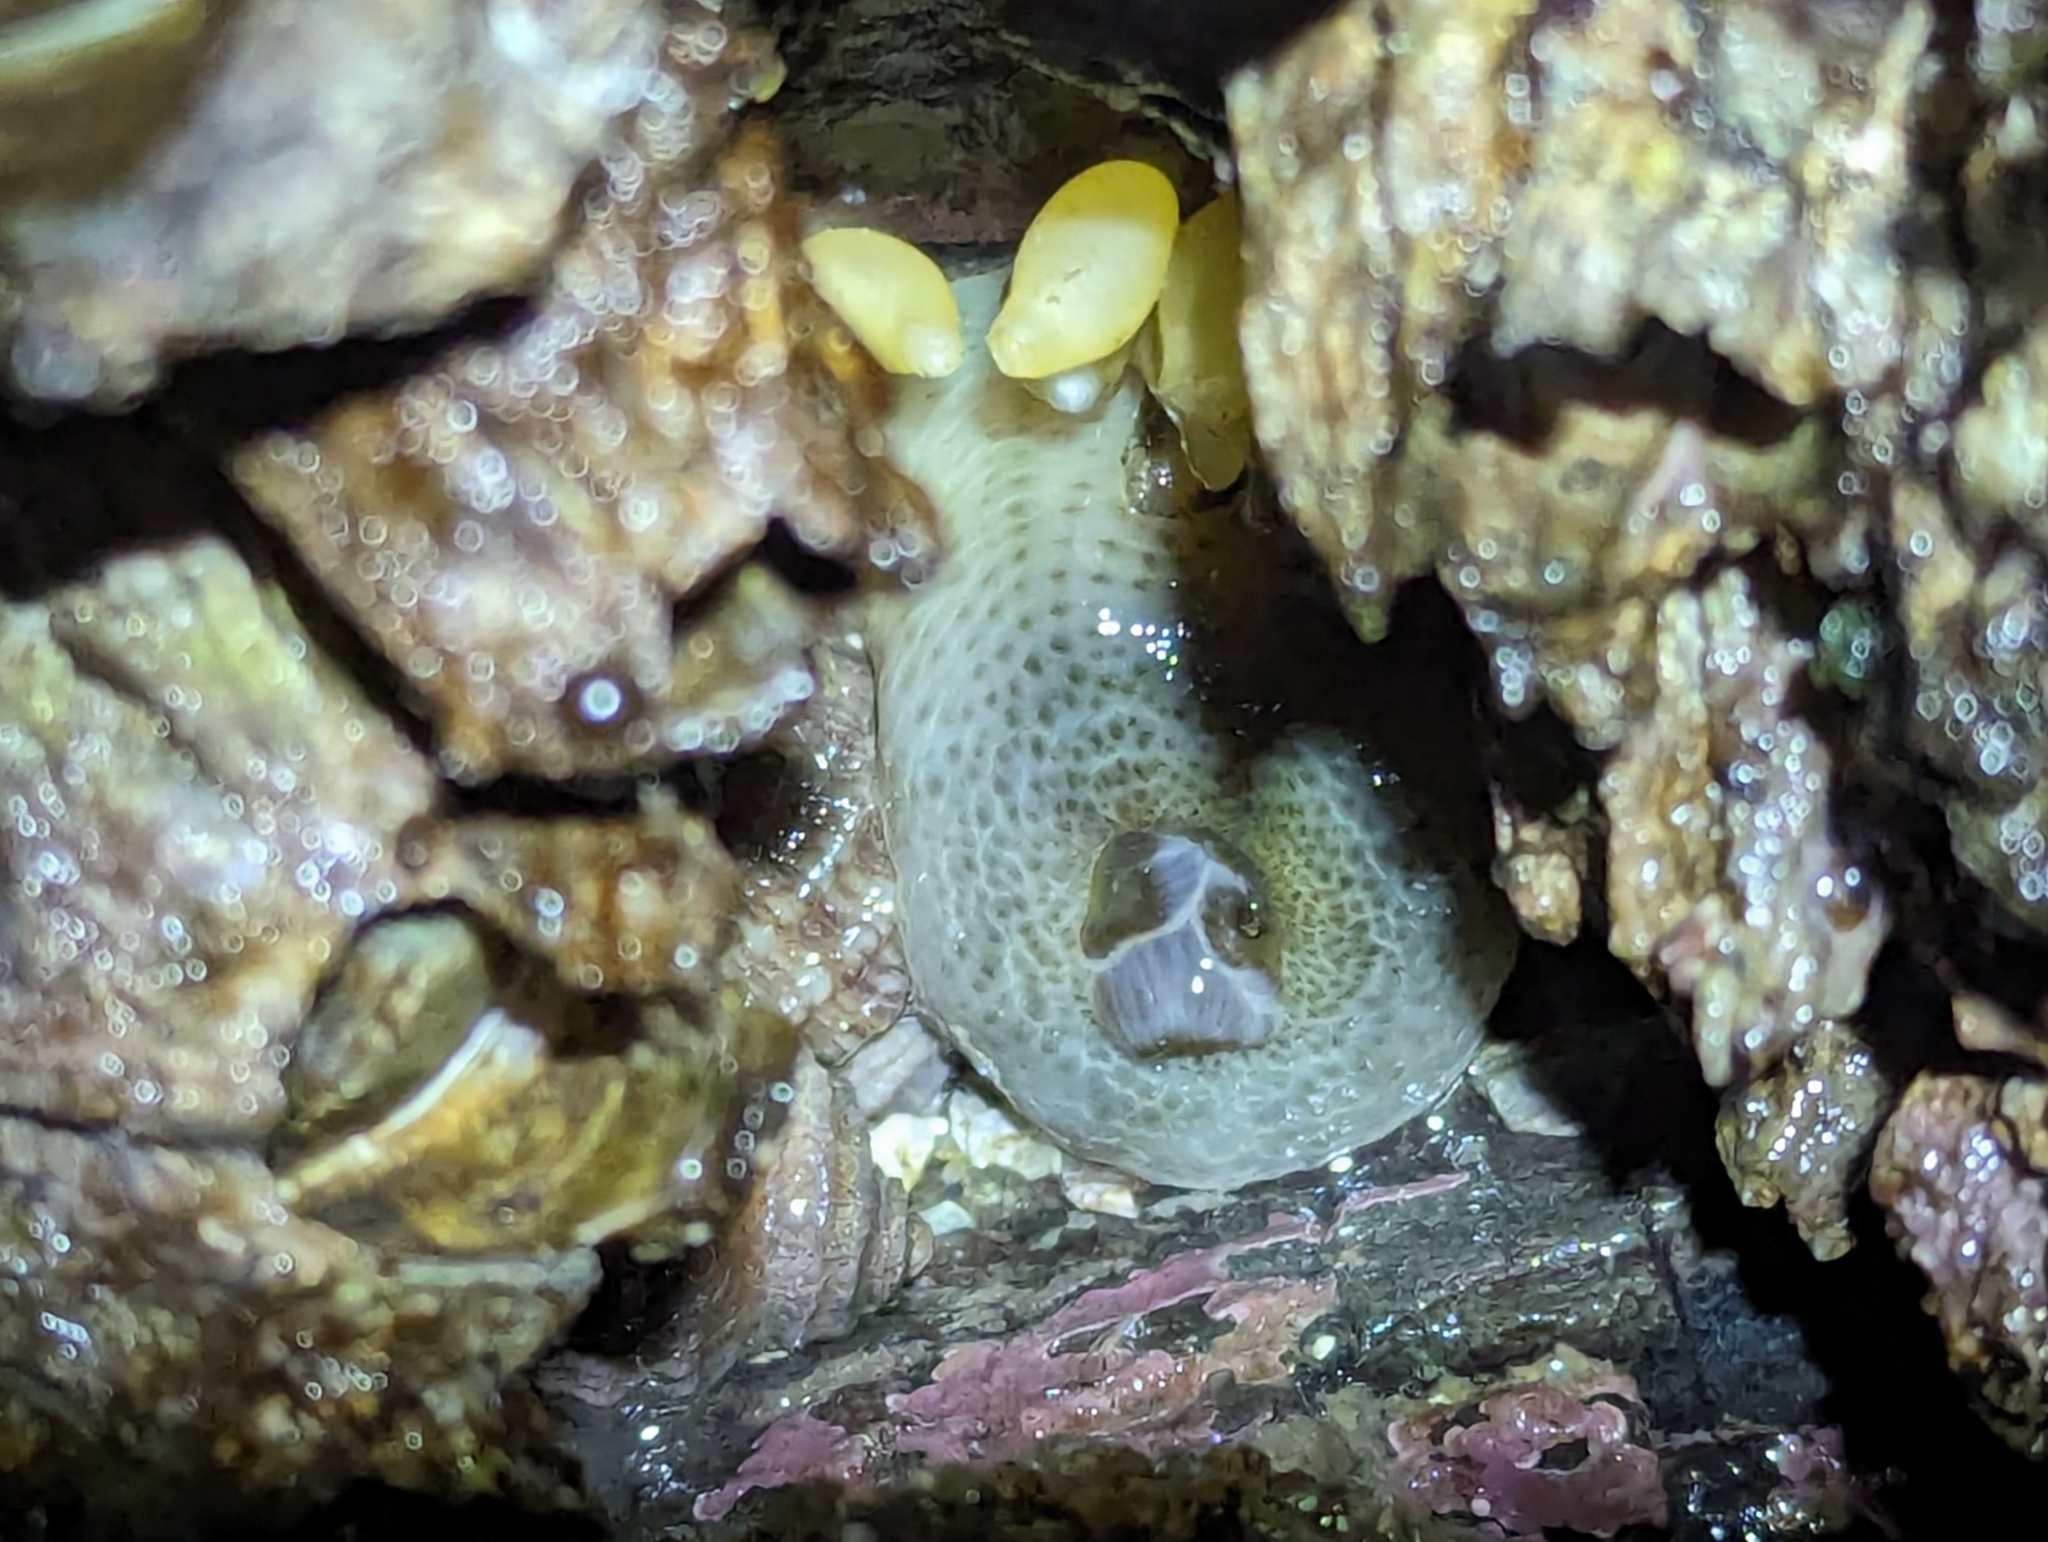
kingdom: Animalia
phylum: Cnidaria
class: Anthozoa
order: Actiniaria
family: Actiniidae
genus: Anthopleura
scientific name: Anthopleura elegantissima
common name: Clonal anemone
